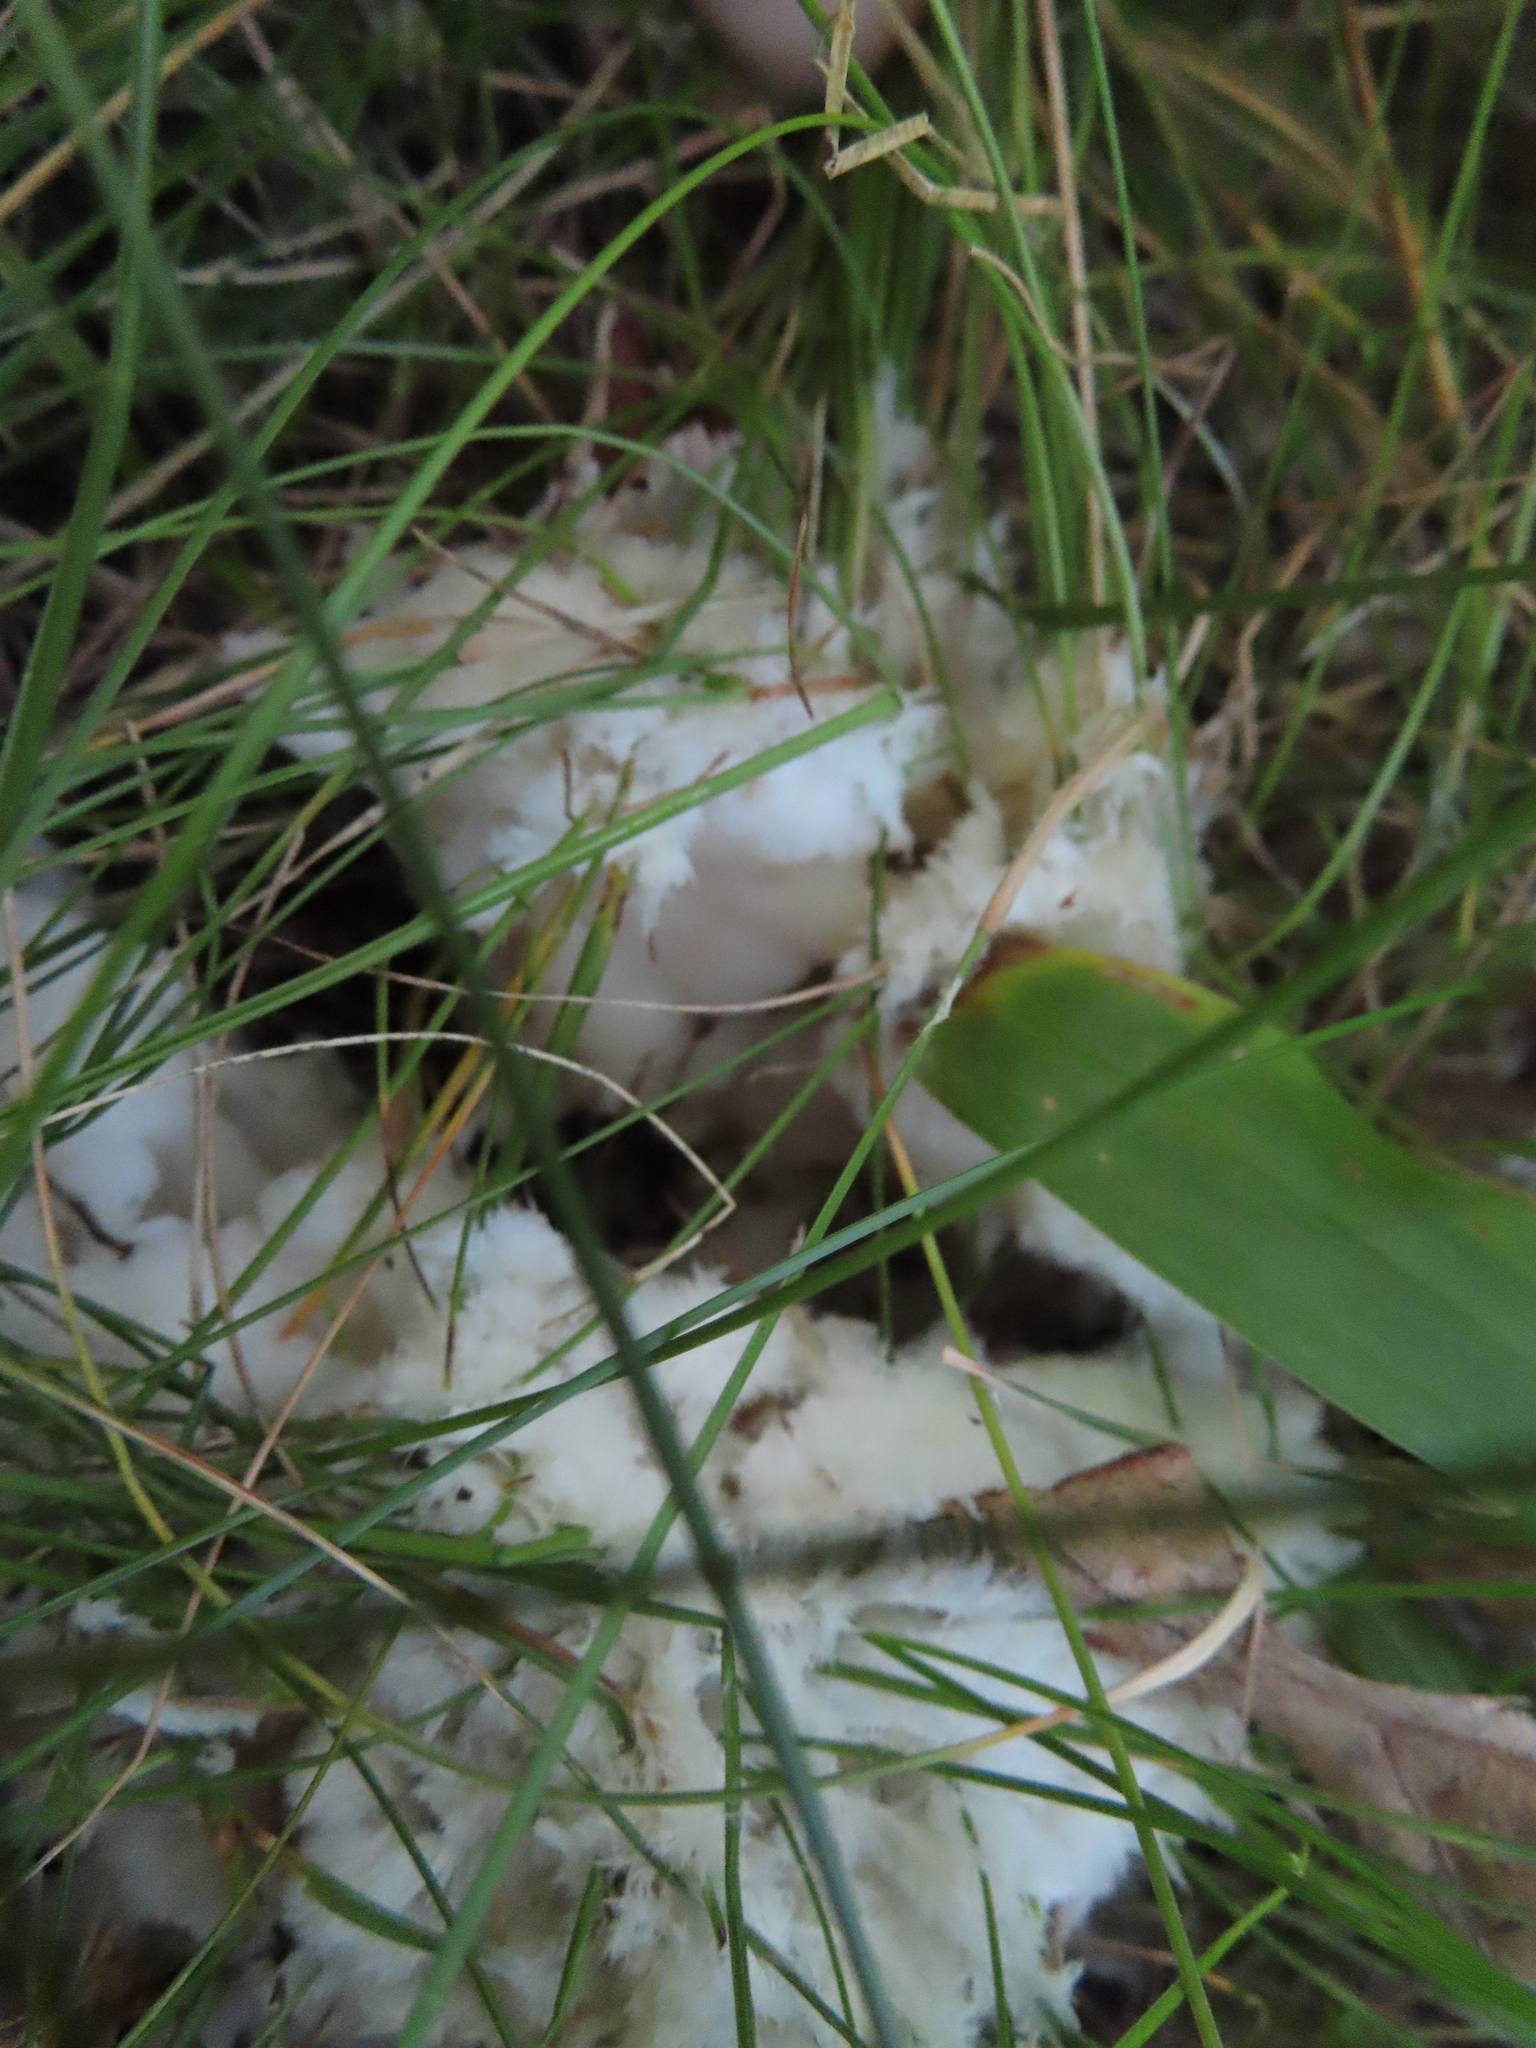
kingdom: Fungi
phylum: Basidiomycota
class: Agaricomycetes
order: Sebacinales
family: Sebacinaceae
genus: Sebacina
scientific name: Sebacina incrustans
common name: Enveloping crust
